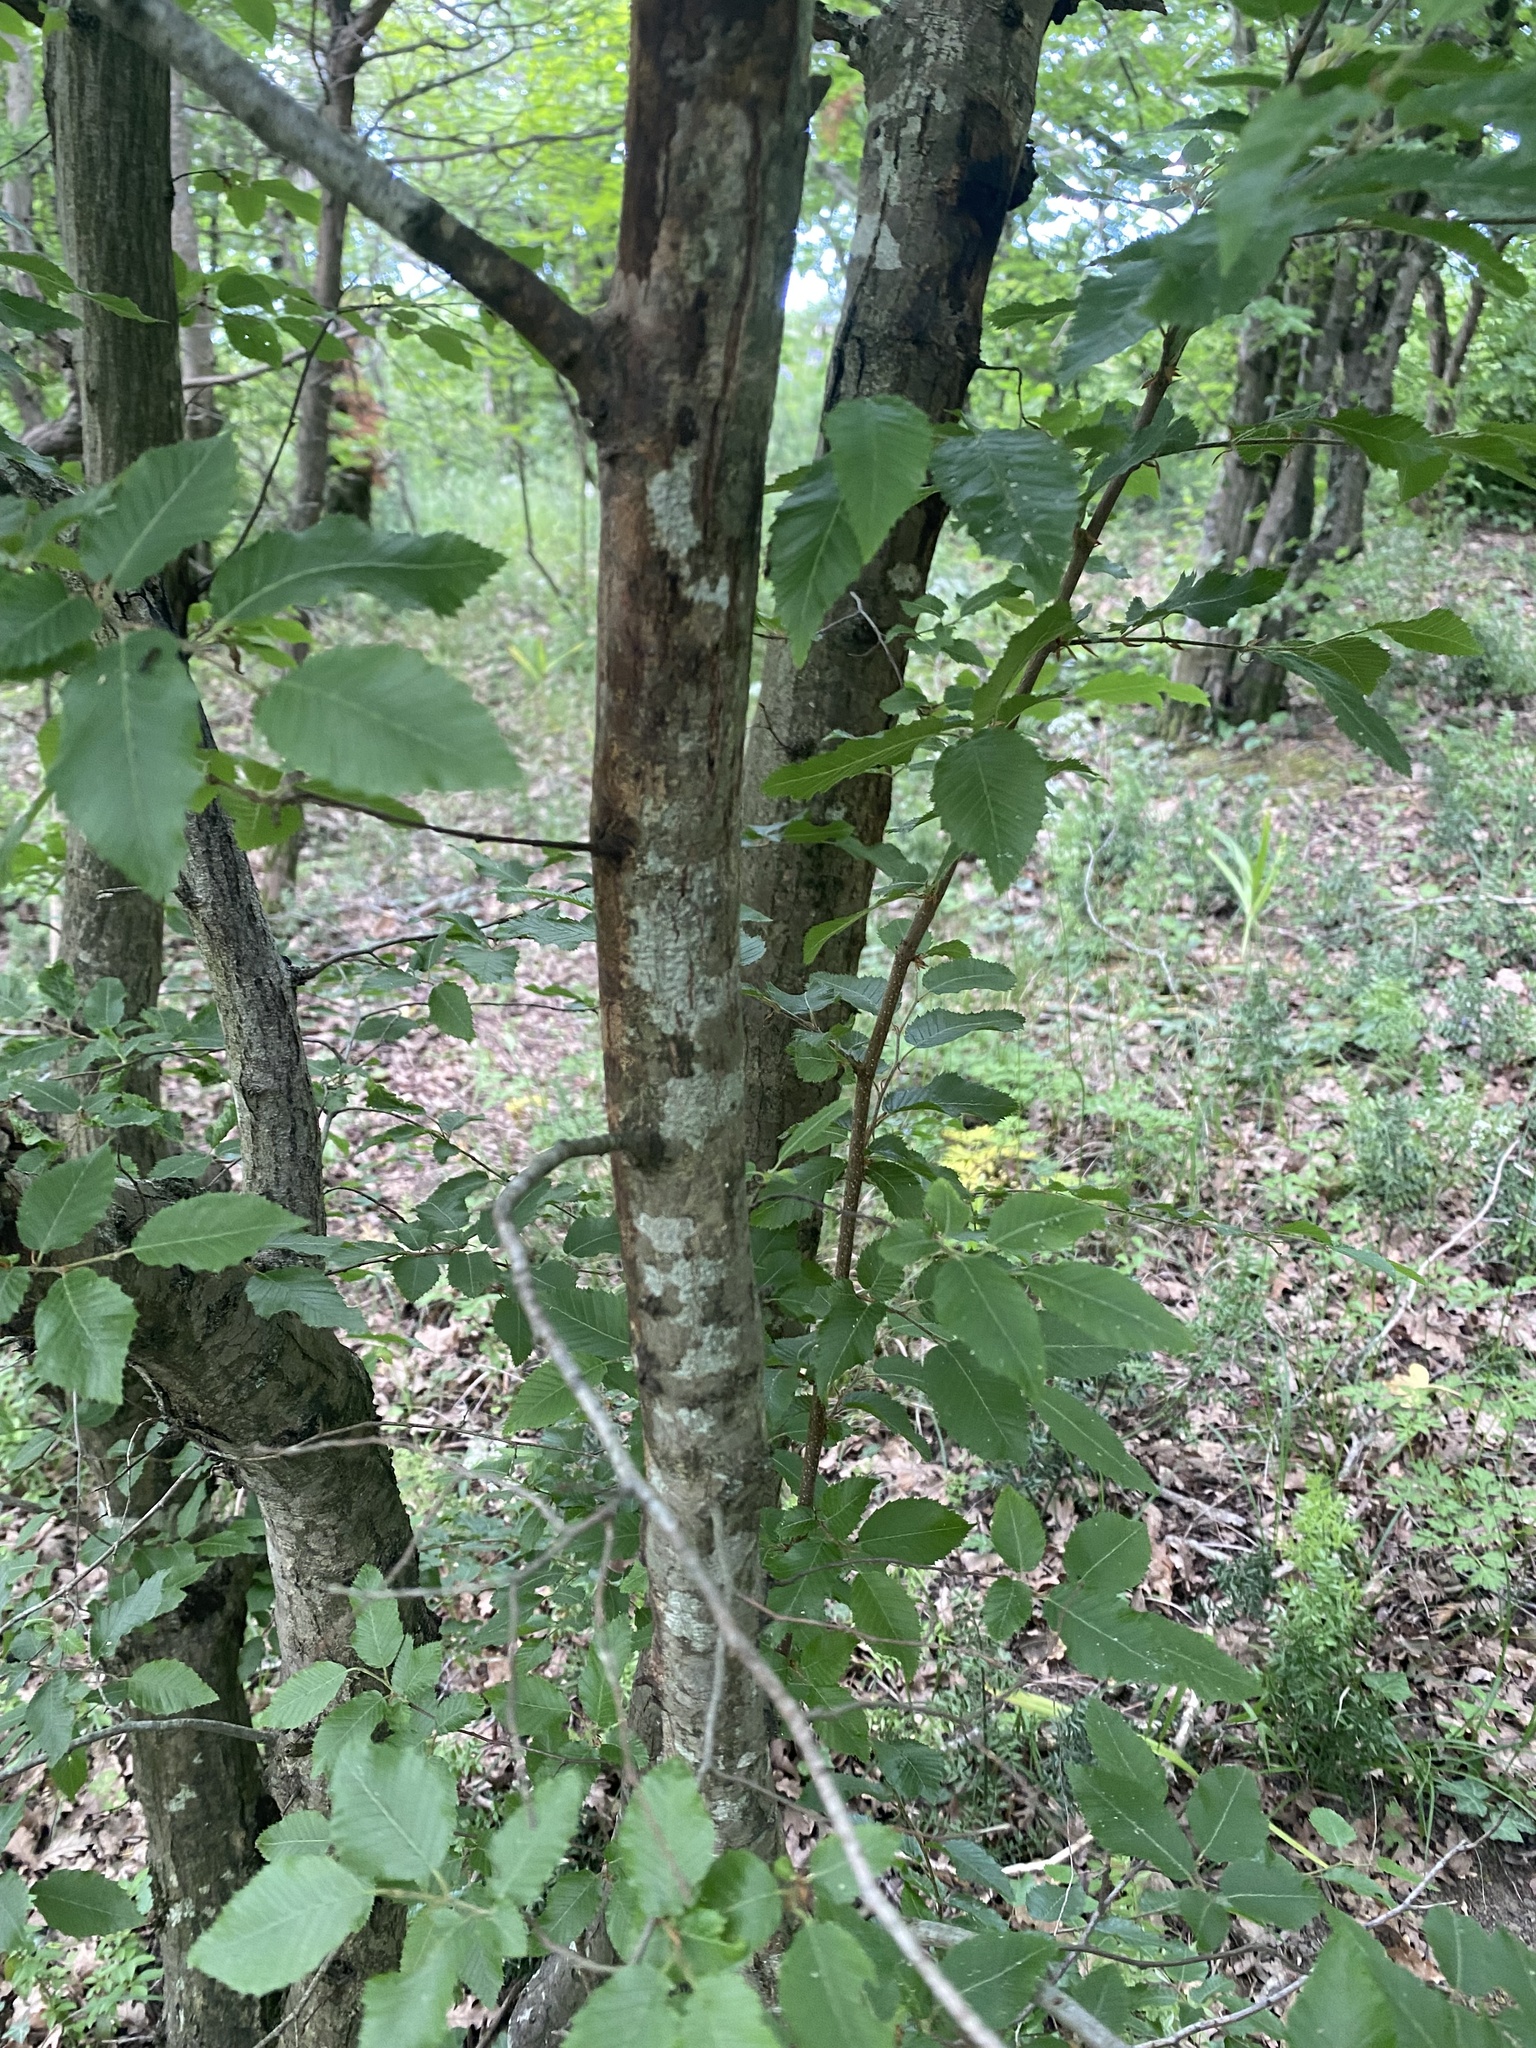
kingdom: Plantae
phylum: Tracheophyta
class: Magnoliopsida
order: Fagales
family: Betulaceae
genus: Carpinus
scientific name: Carpinus orientalis
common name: Eastern hornbeam
